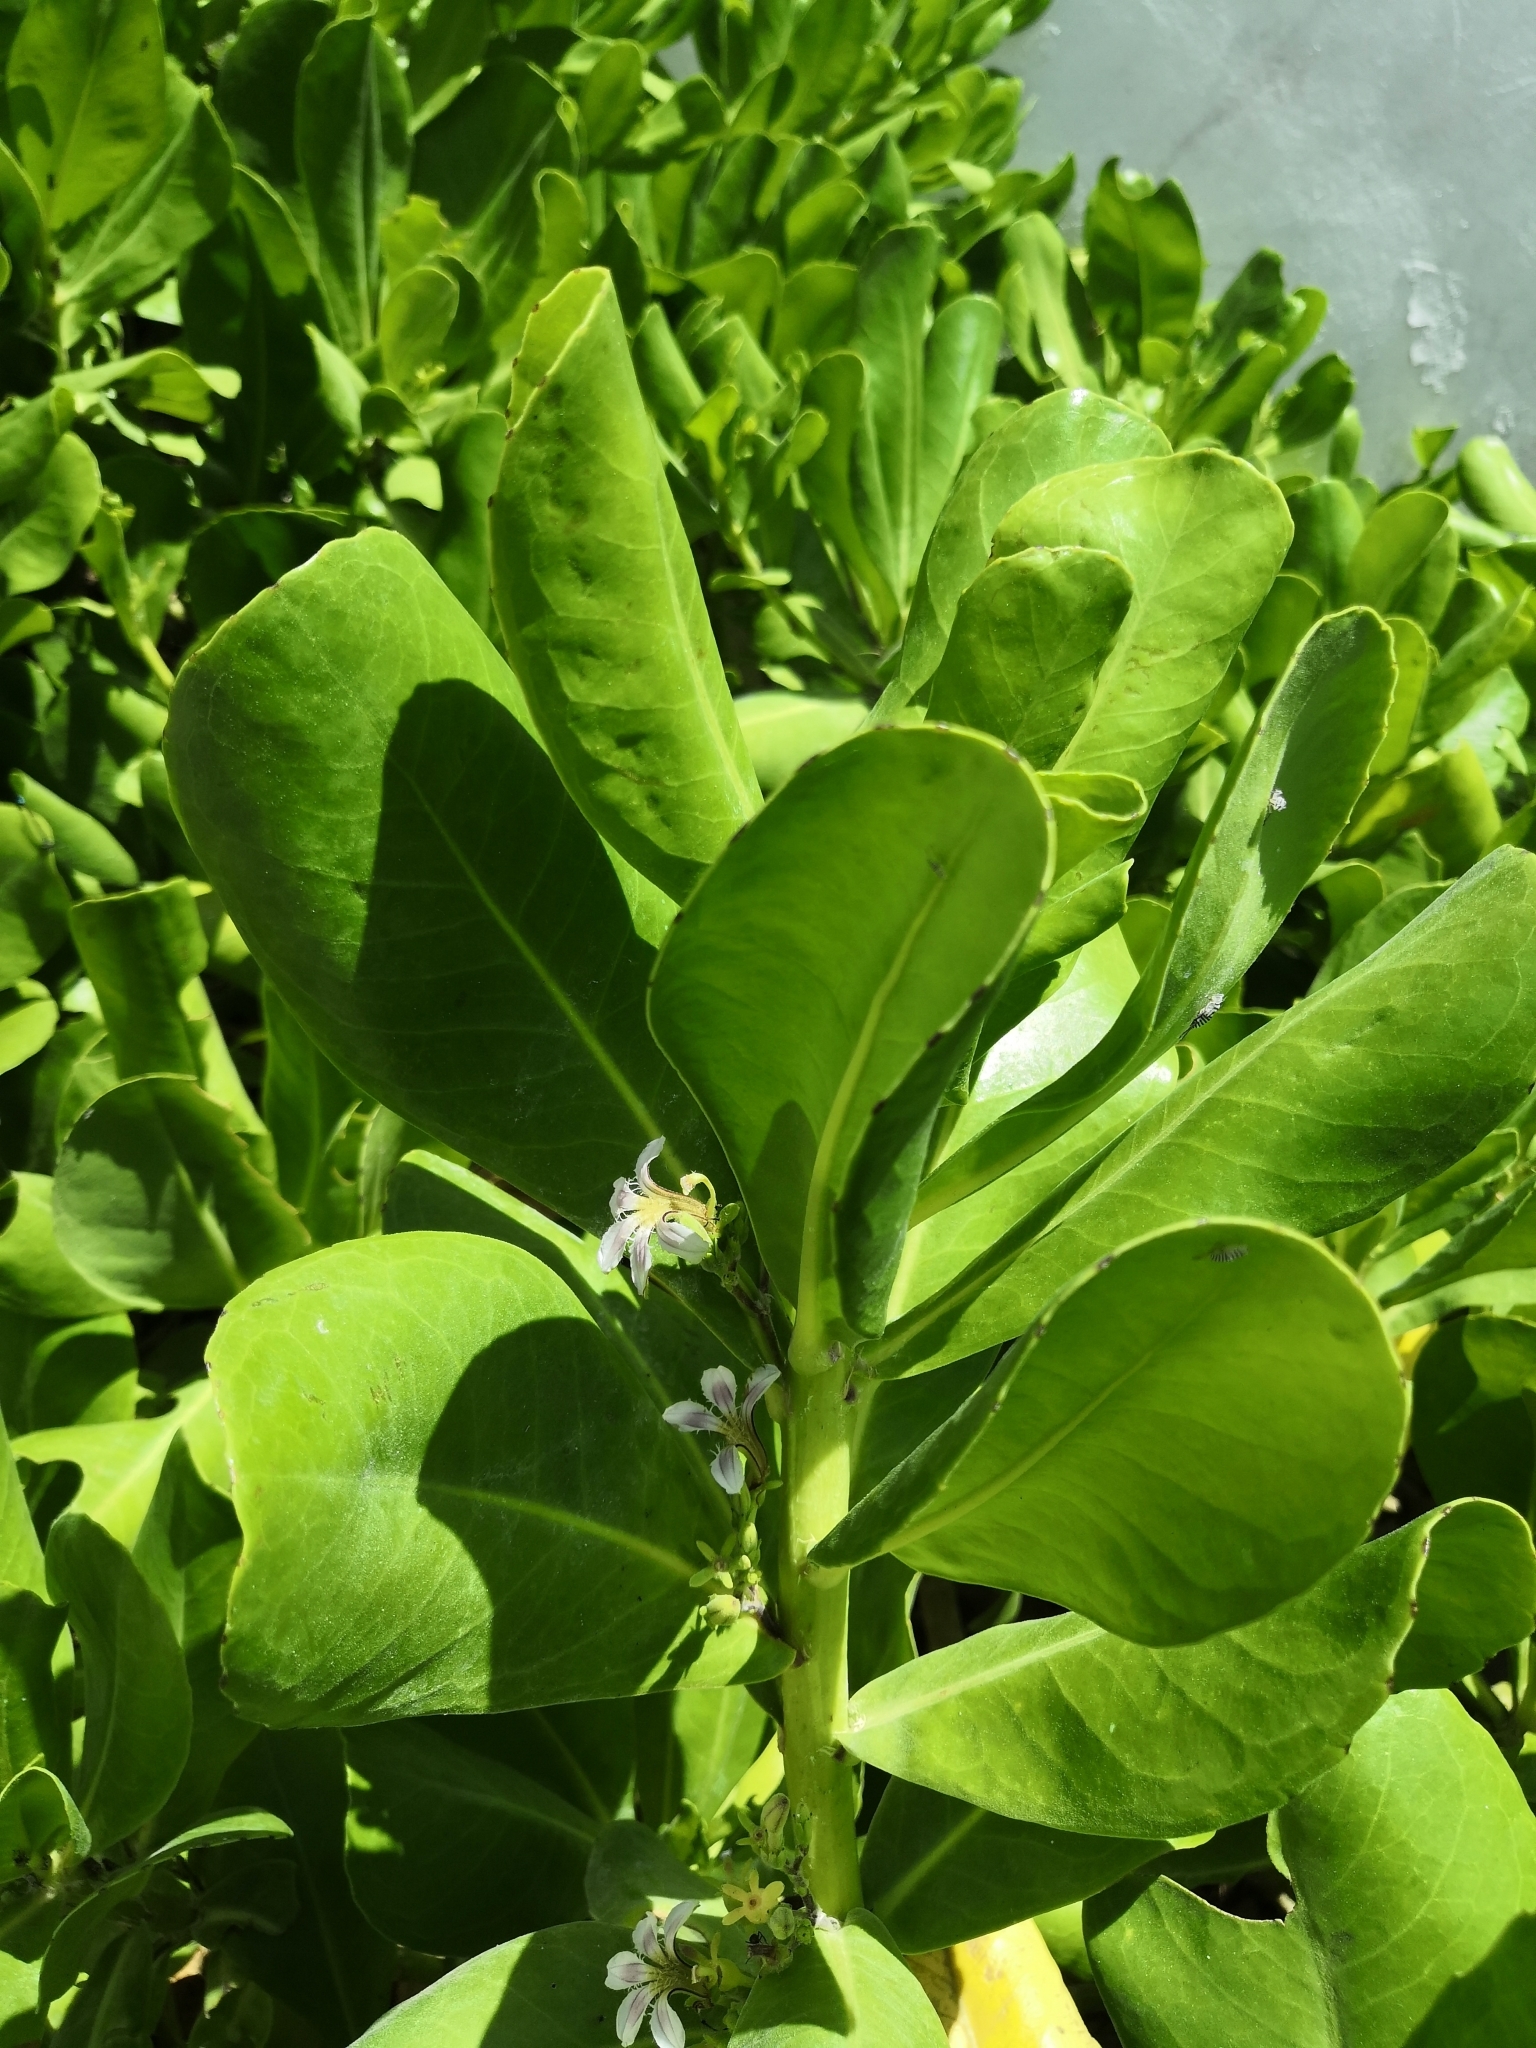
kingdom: Plantae
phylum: Tracheophyta
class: Magnoliopsida
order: Asterales
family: Goodeniaceae
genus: Scaevola
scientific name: Scaevola taccada
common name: Sea lettucetree
